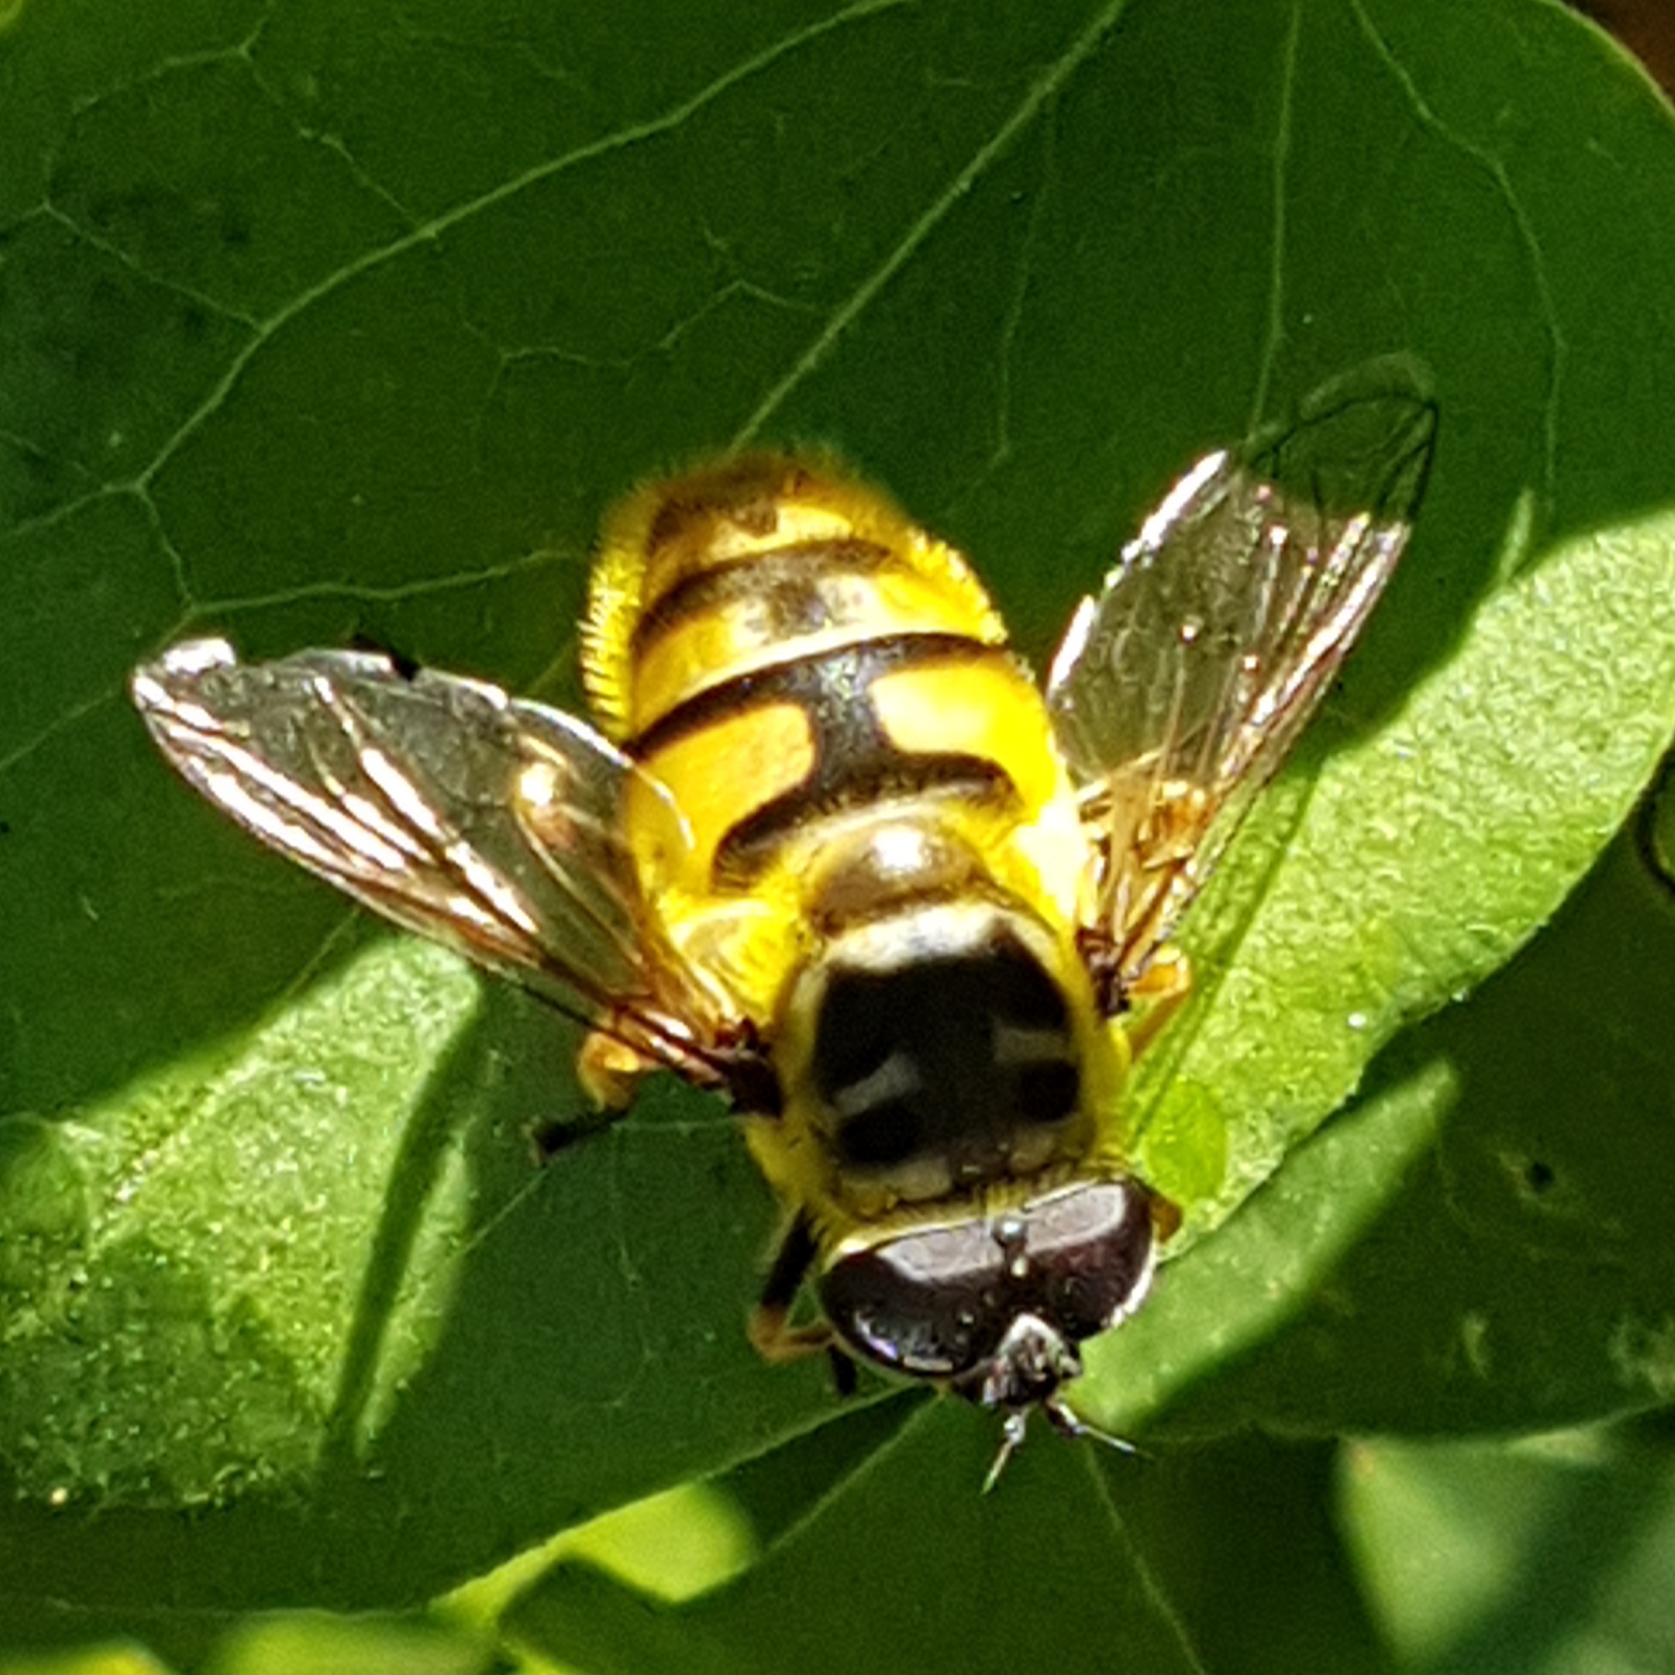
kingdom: Animalia
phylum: Arthropoda
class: Insecta
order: Diptera
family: Syrphidae
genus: Myathropa
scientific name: Myathropa florea
